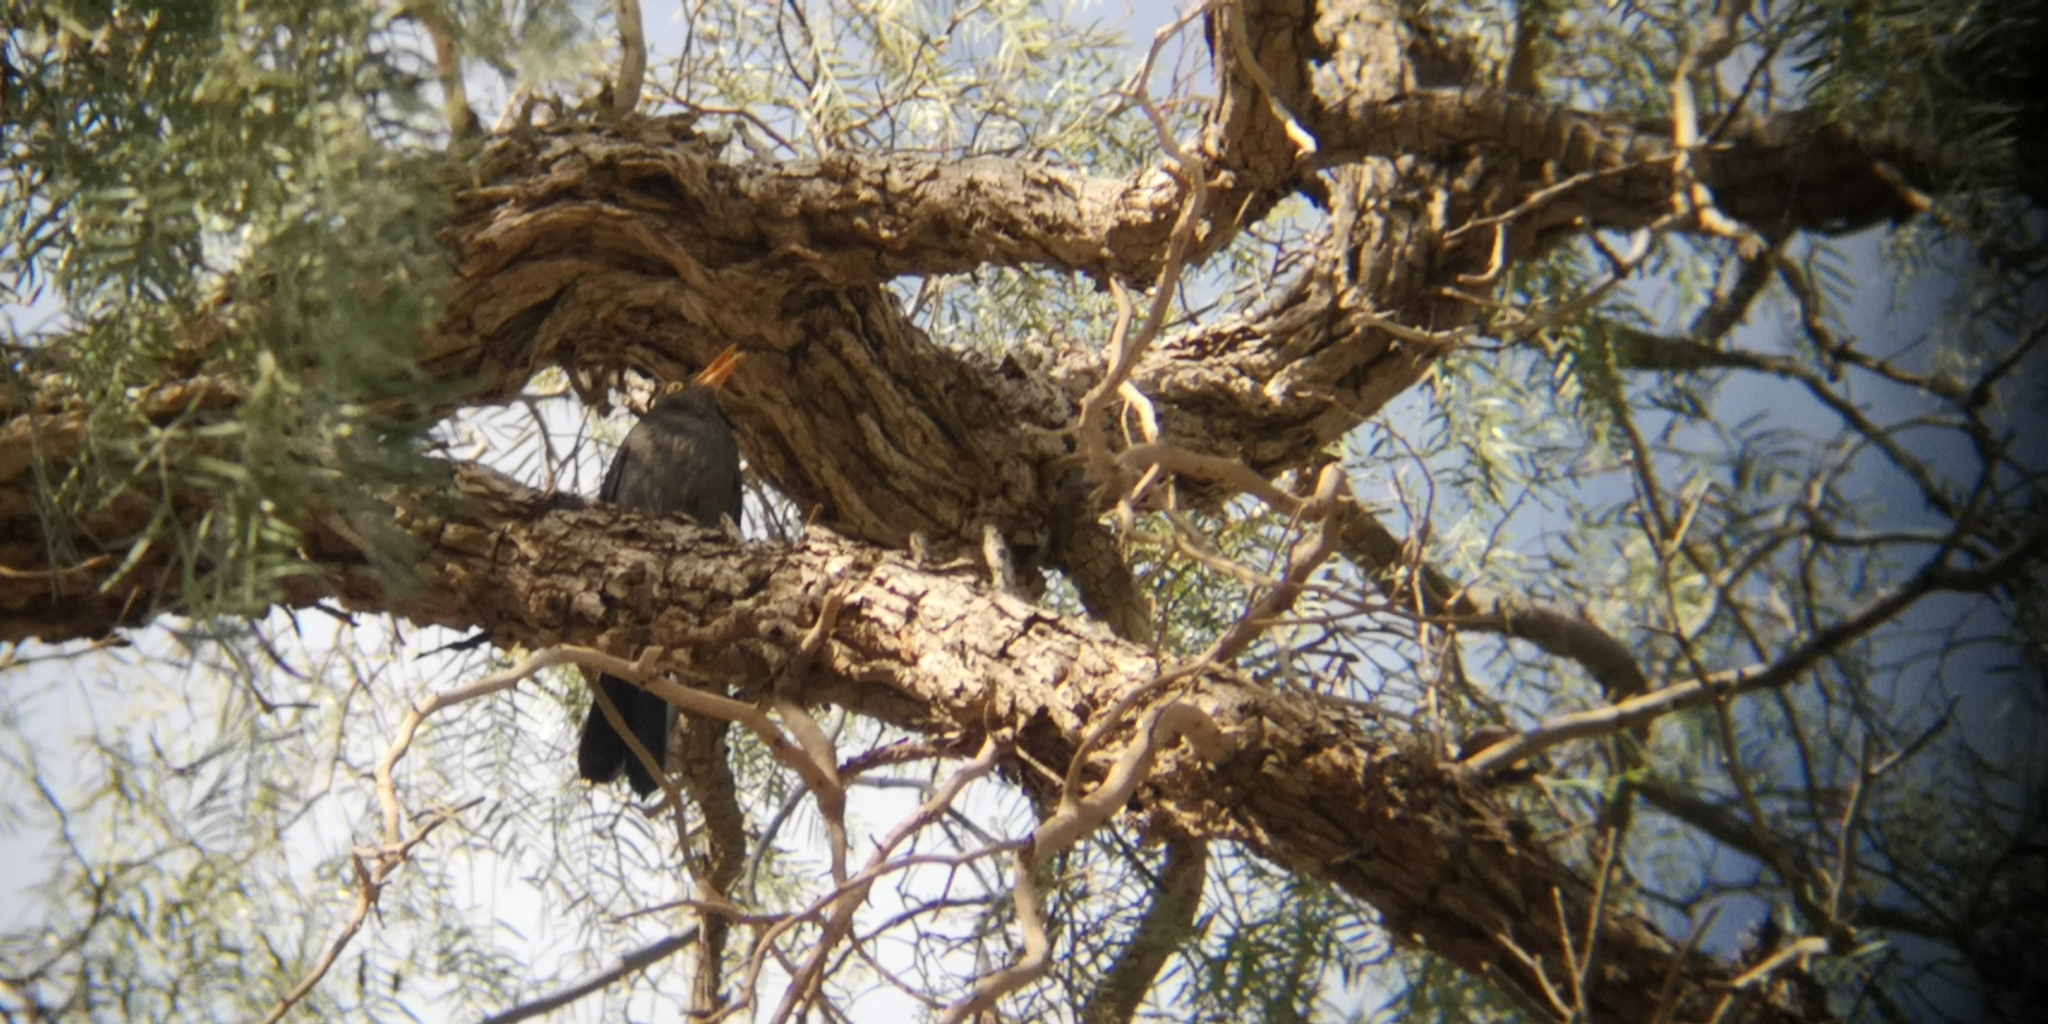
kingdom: Animalia
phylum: Chordata
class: Aves
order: Passeriformes
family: Turdidae
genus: Turdus
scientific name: Turdus chiguanco
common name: Chiguanco thrush
